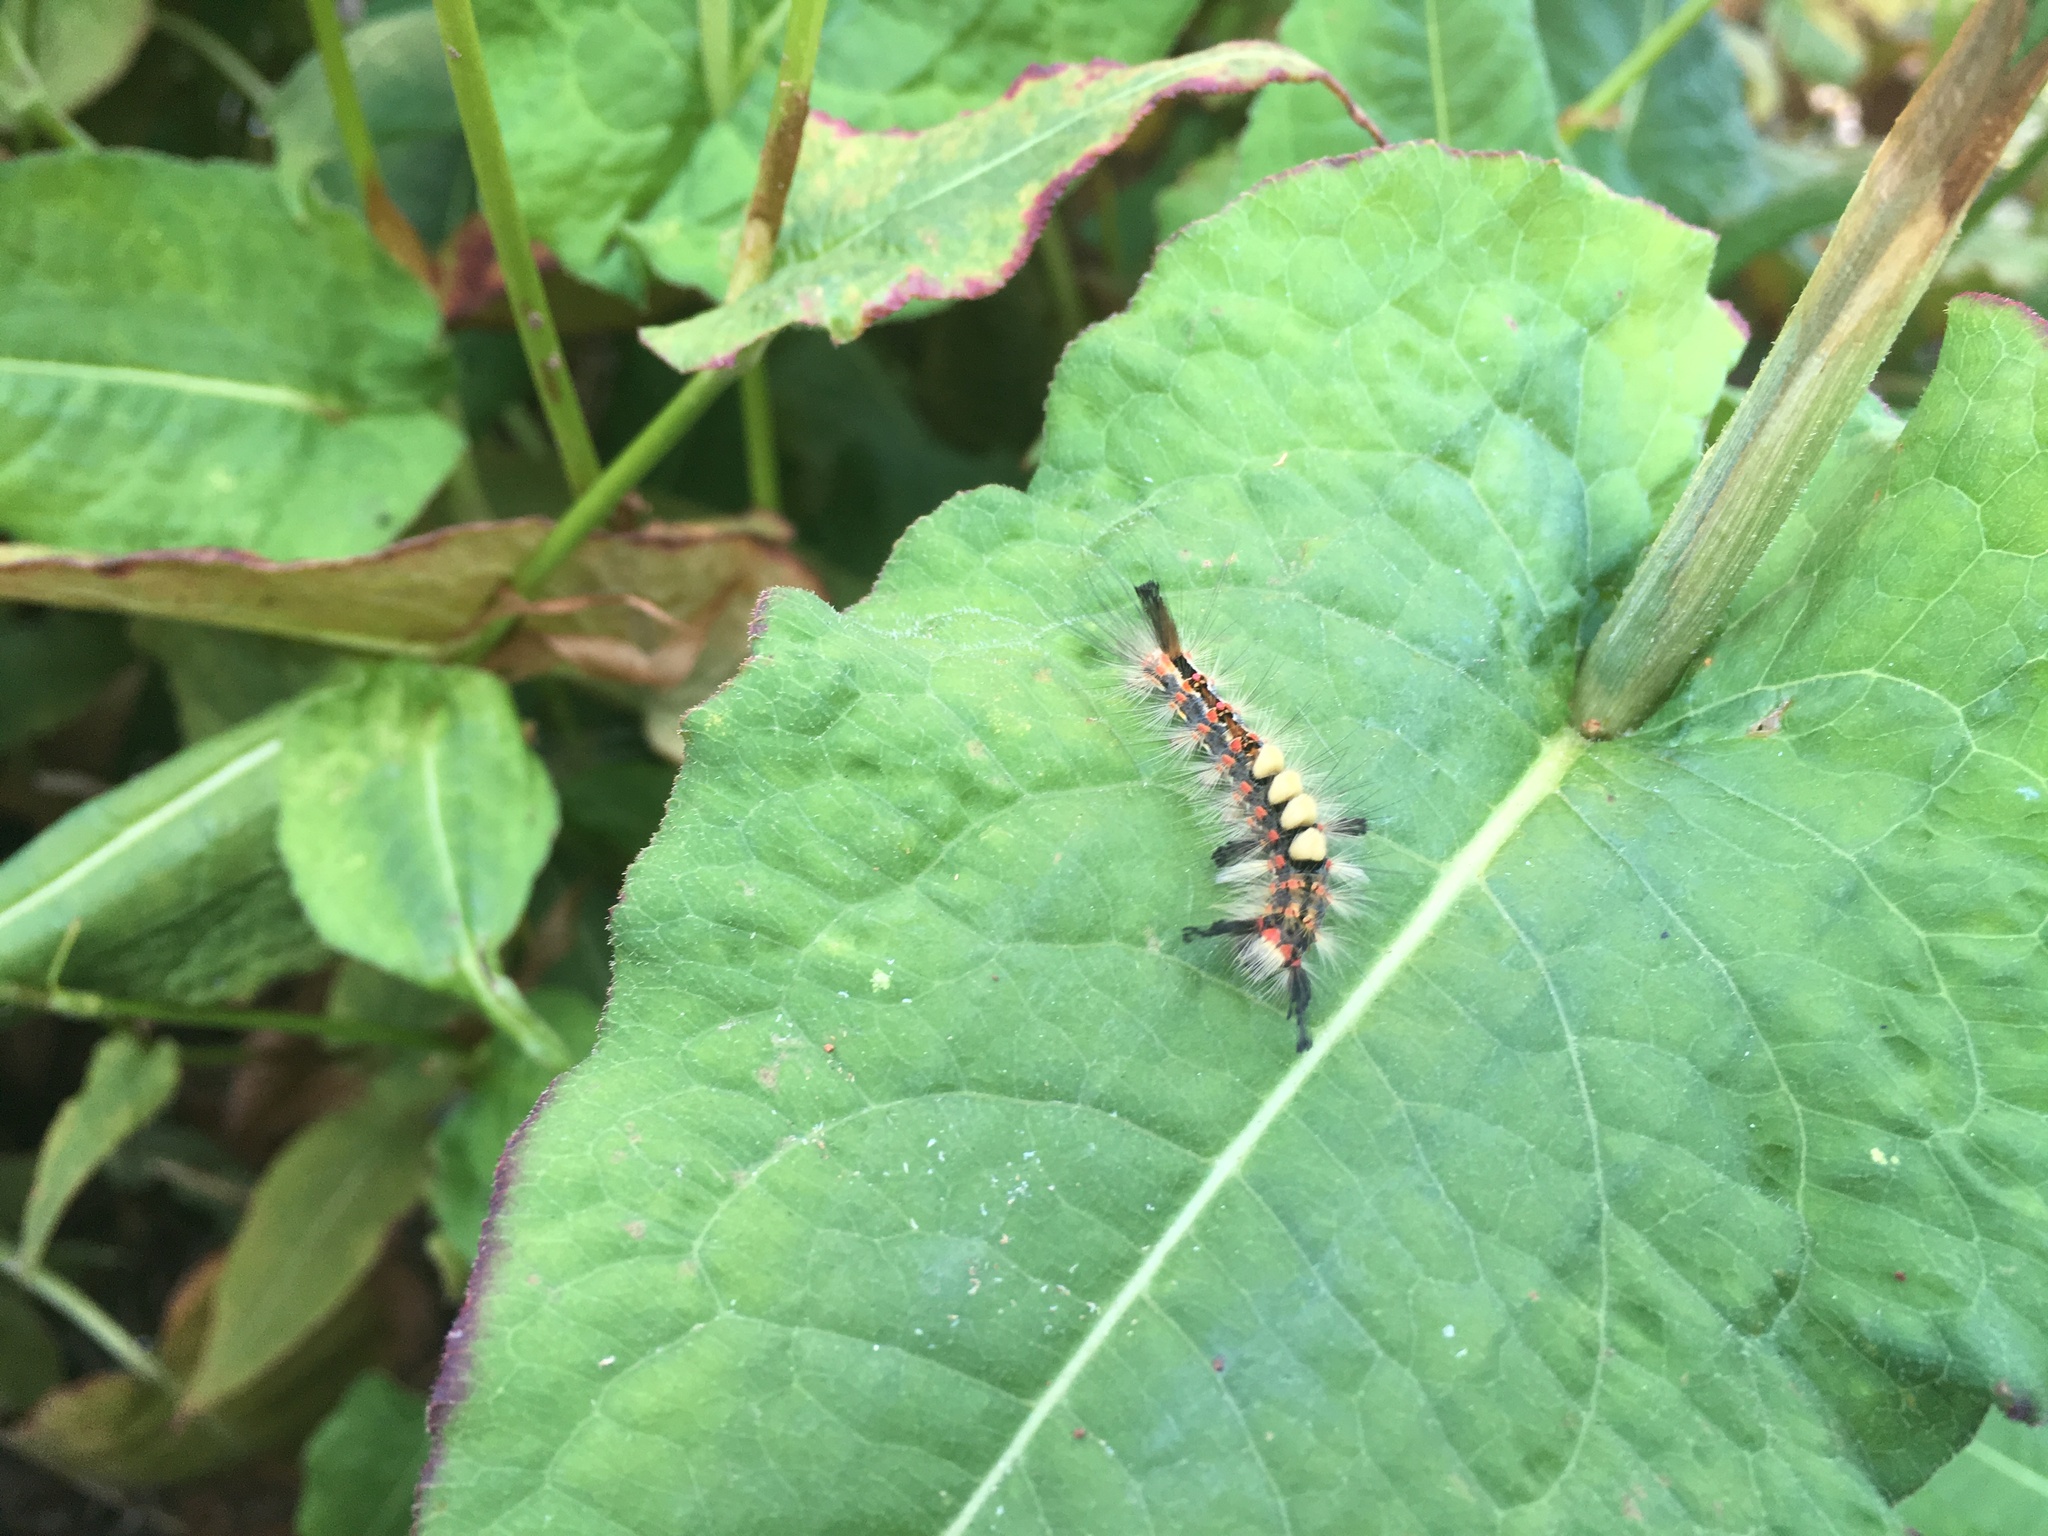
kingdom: Animalia
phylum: Arthropoda
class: Insecta
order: Lepidoptera
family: Erebidae
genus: Orgyia
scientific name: Orgyia antiqua
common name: Vapourer
